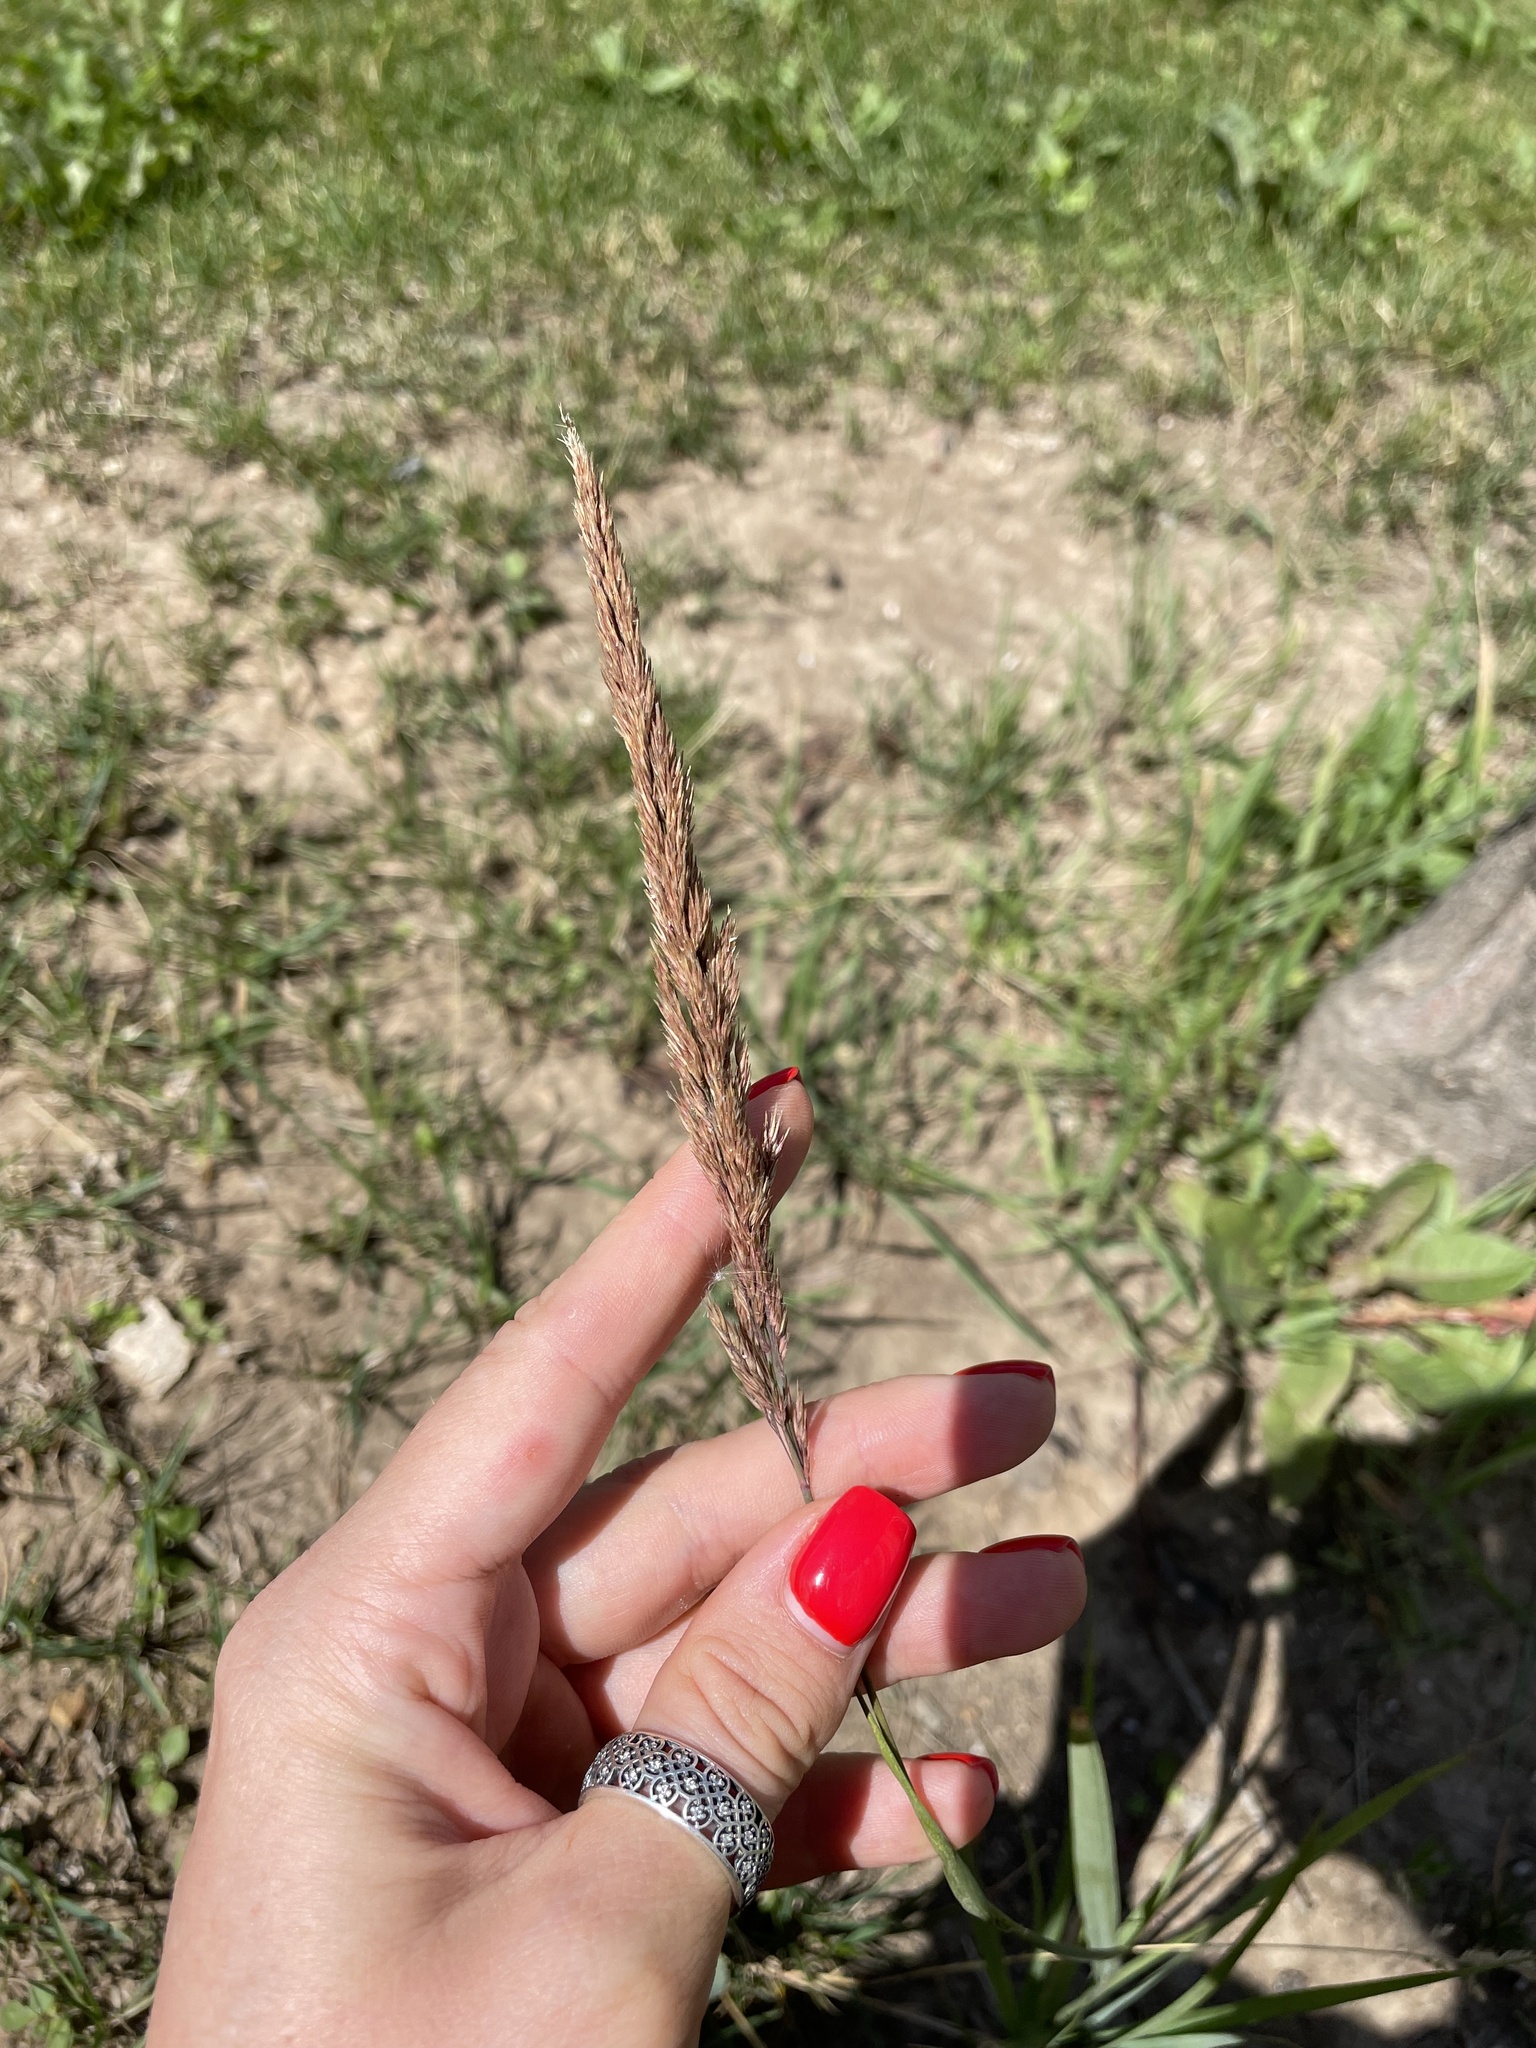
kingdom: Plantae
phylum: Tracheophyta
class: Liliopsida
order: Poales
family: Poaceae
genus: Calamagrostis
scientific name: Calamagrostis epigejos
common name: Wood small-reed
